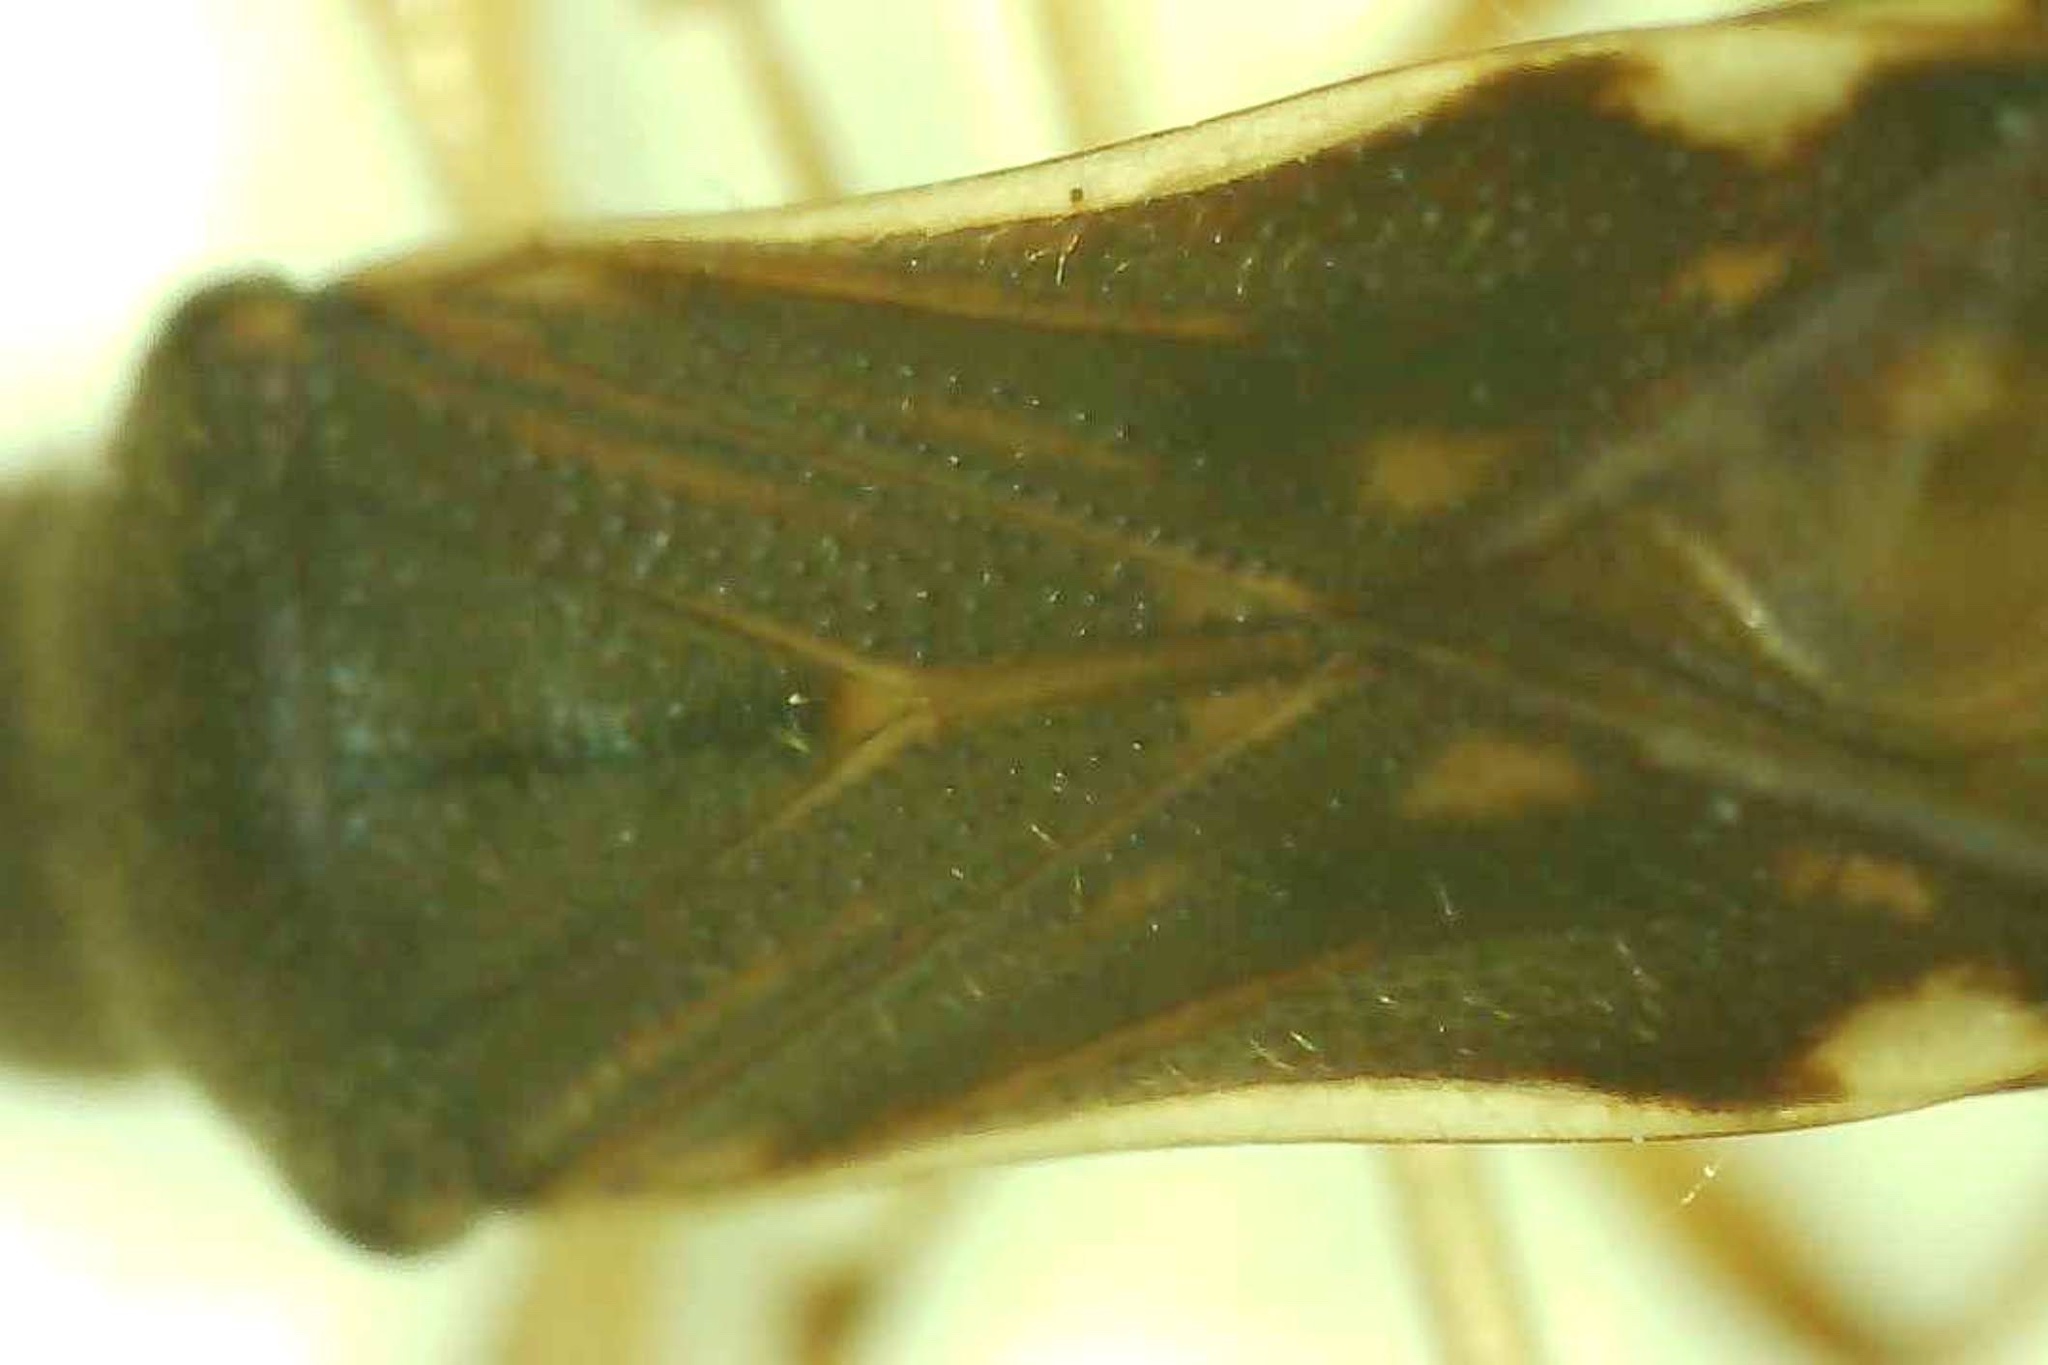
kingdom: Animalia
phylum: Arthropoda
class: Insecta
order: Hemiptera
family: Rhyparochromidae
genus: Myodocha
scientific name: Myodocha serripes
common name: Long-necked seed bug
